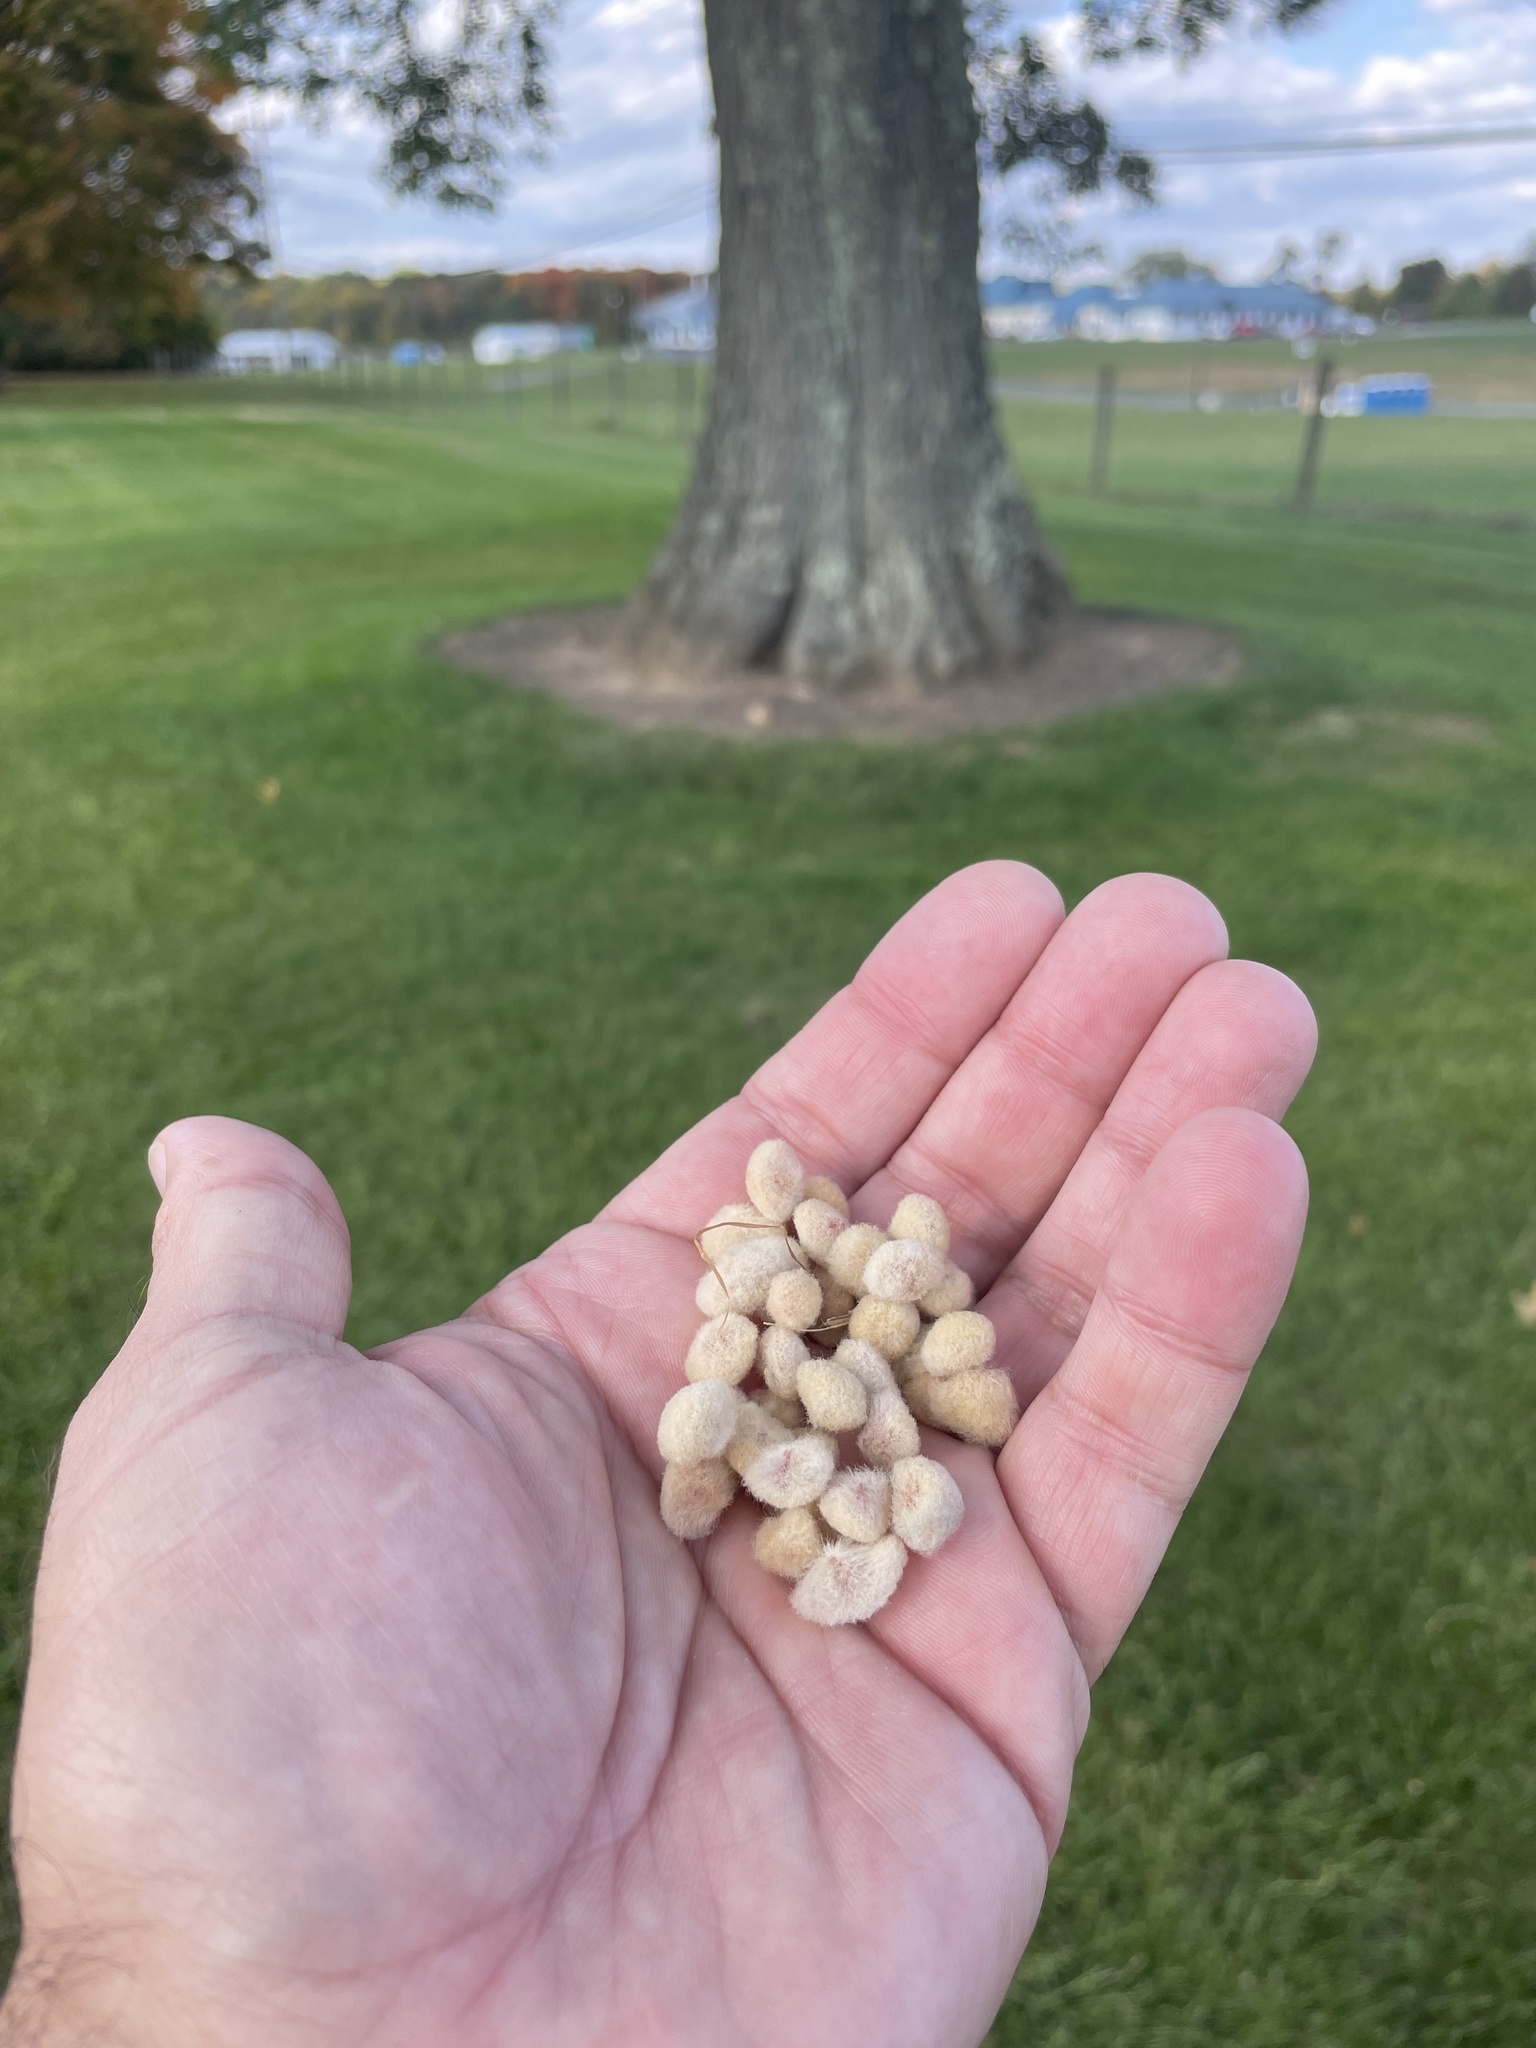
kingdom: Animalia
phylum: Arthropoda
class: Insecta
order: Hymenoptera
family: Cynipidae
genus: Callirhytis
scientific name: Callirhytis
